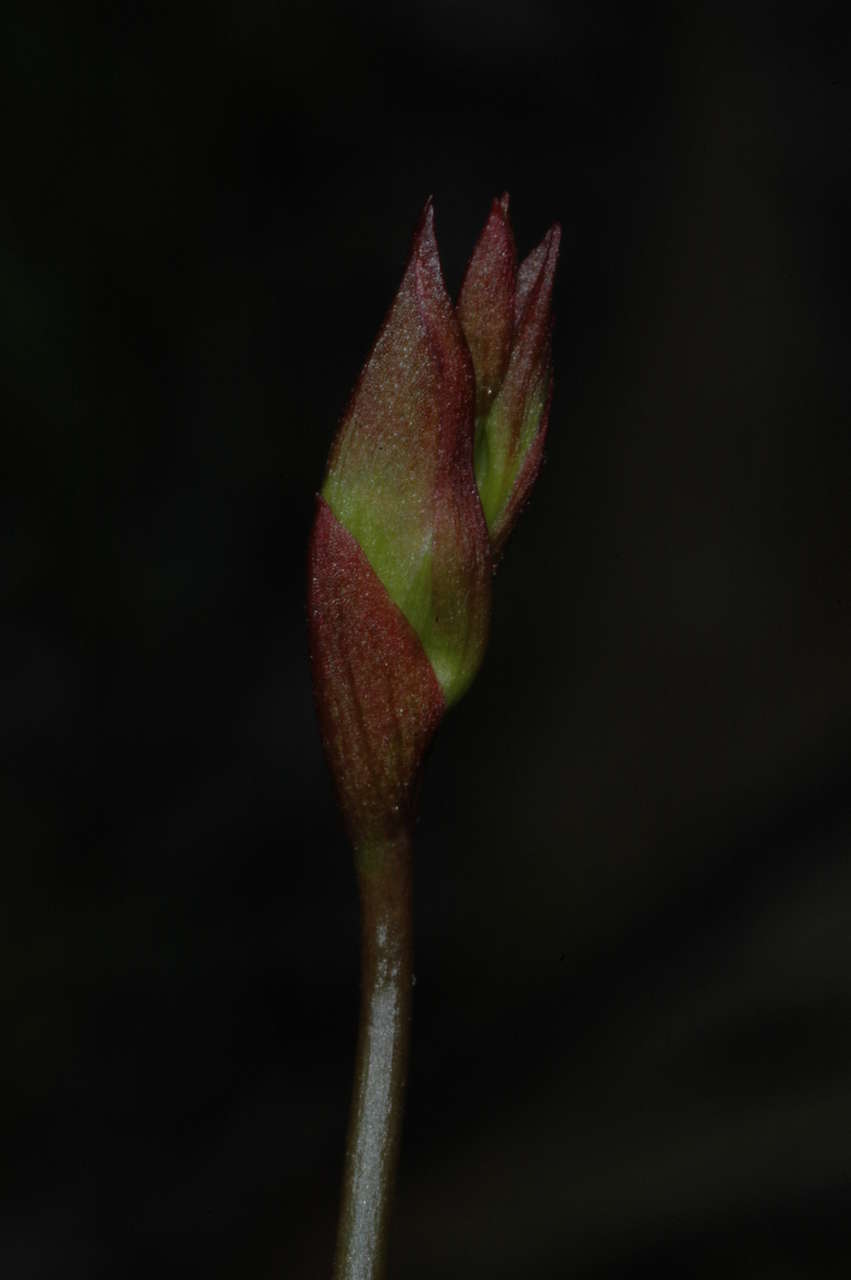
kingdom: Plantae
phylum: Tracheophyta
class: Liliopsida
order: Asparagales
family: Orchidaceae
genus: Caleana
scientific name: Caleana major
